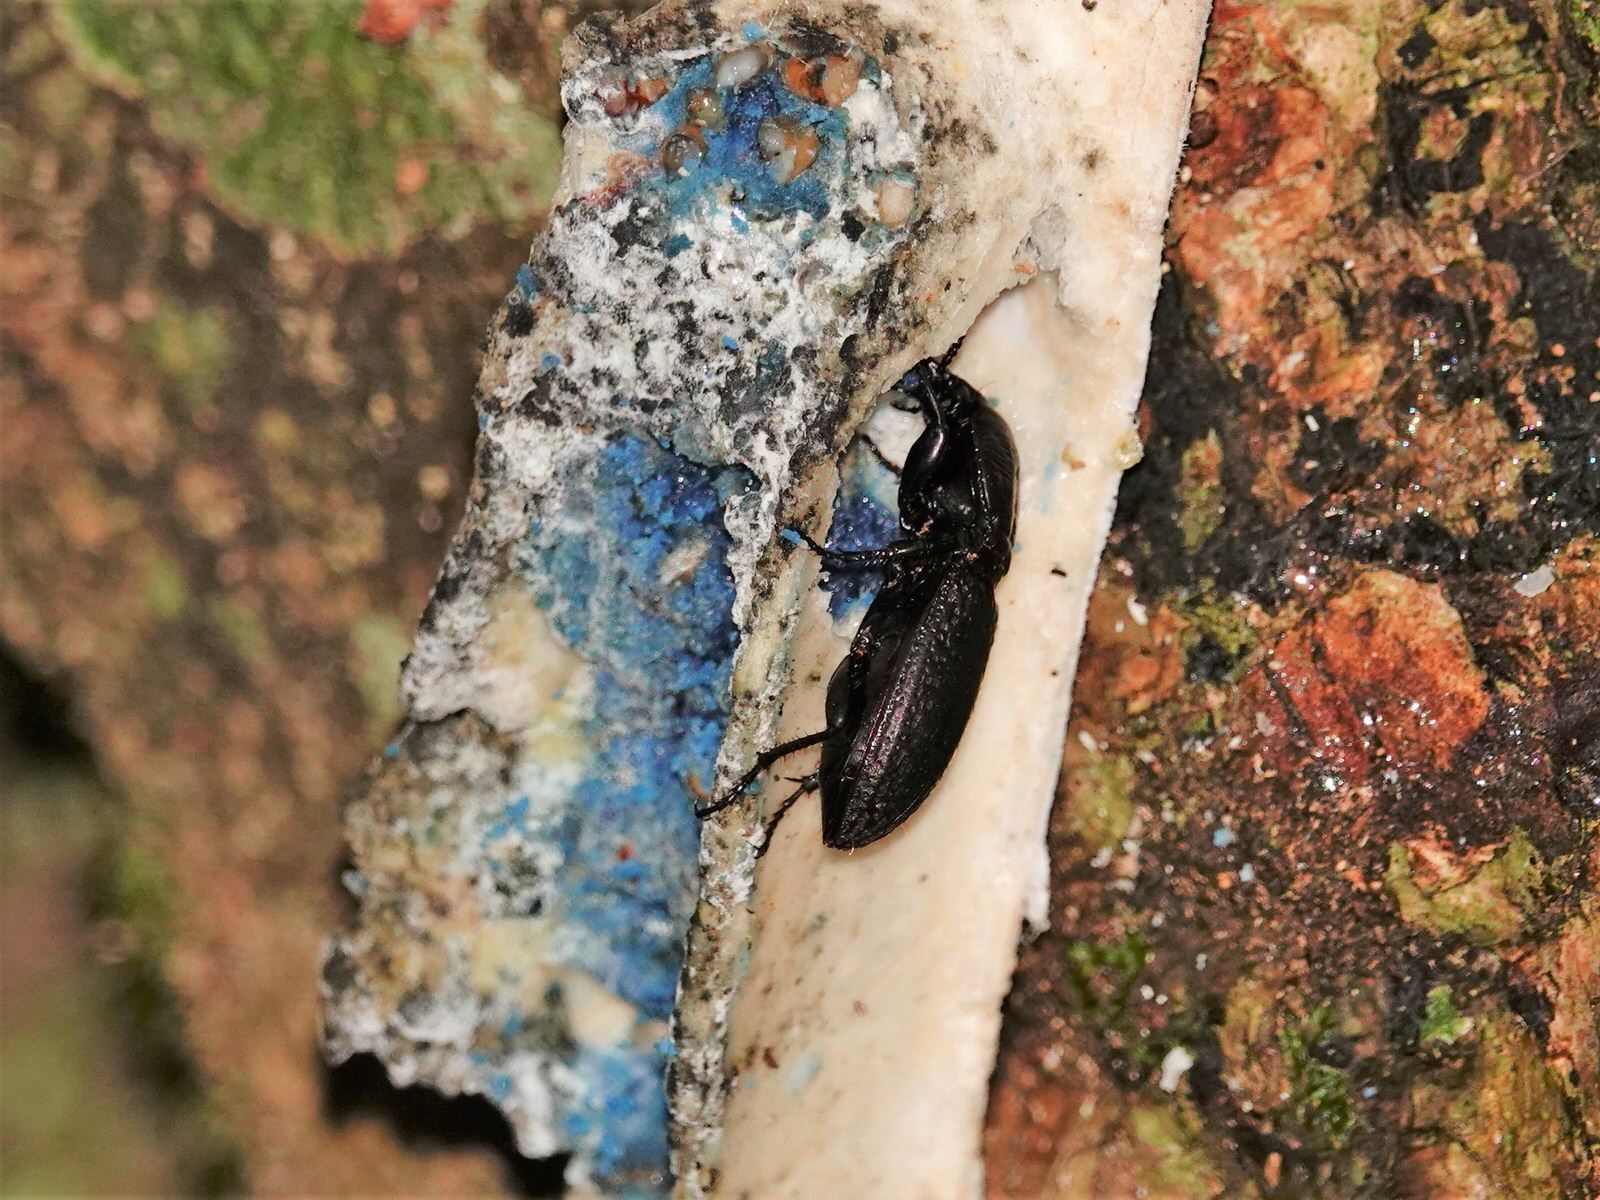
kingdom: Animalia
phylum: Arthropoda
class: Insecta
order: Coleoptera
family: Carabidae
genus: Mecodema
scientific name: Mecodema crenaticolle
